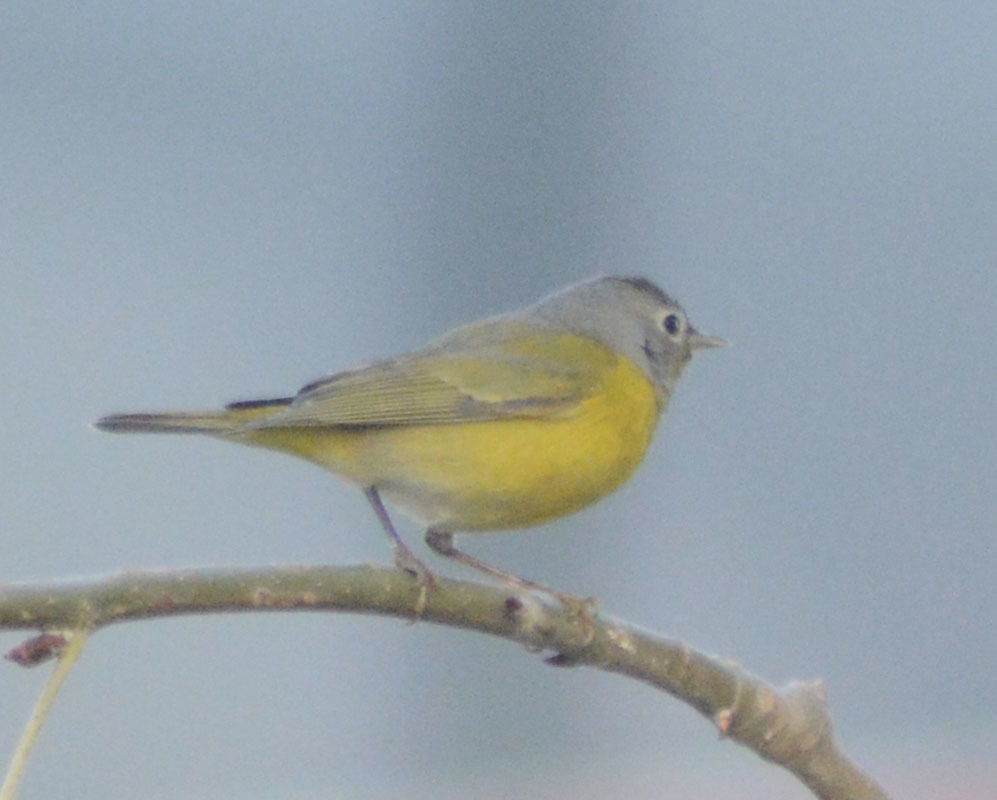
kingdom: Animalia
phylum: Chordata
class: Aves
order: Passeriformes
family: Parulidae
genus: Leiothlypis
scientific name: Leiothlypis ruficapilla
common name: Nashville warbler
